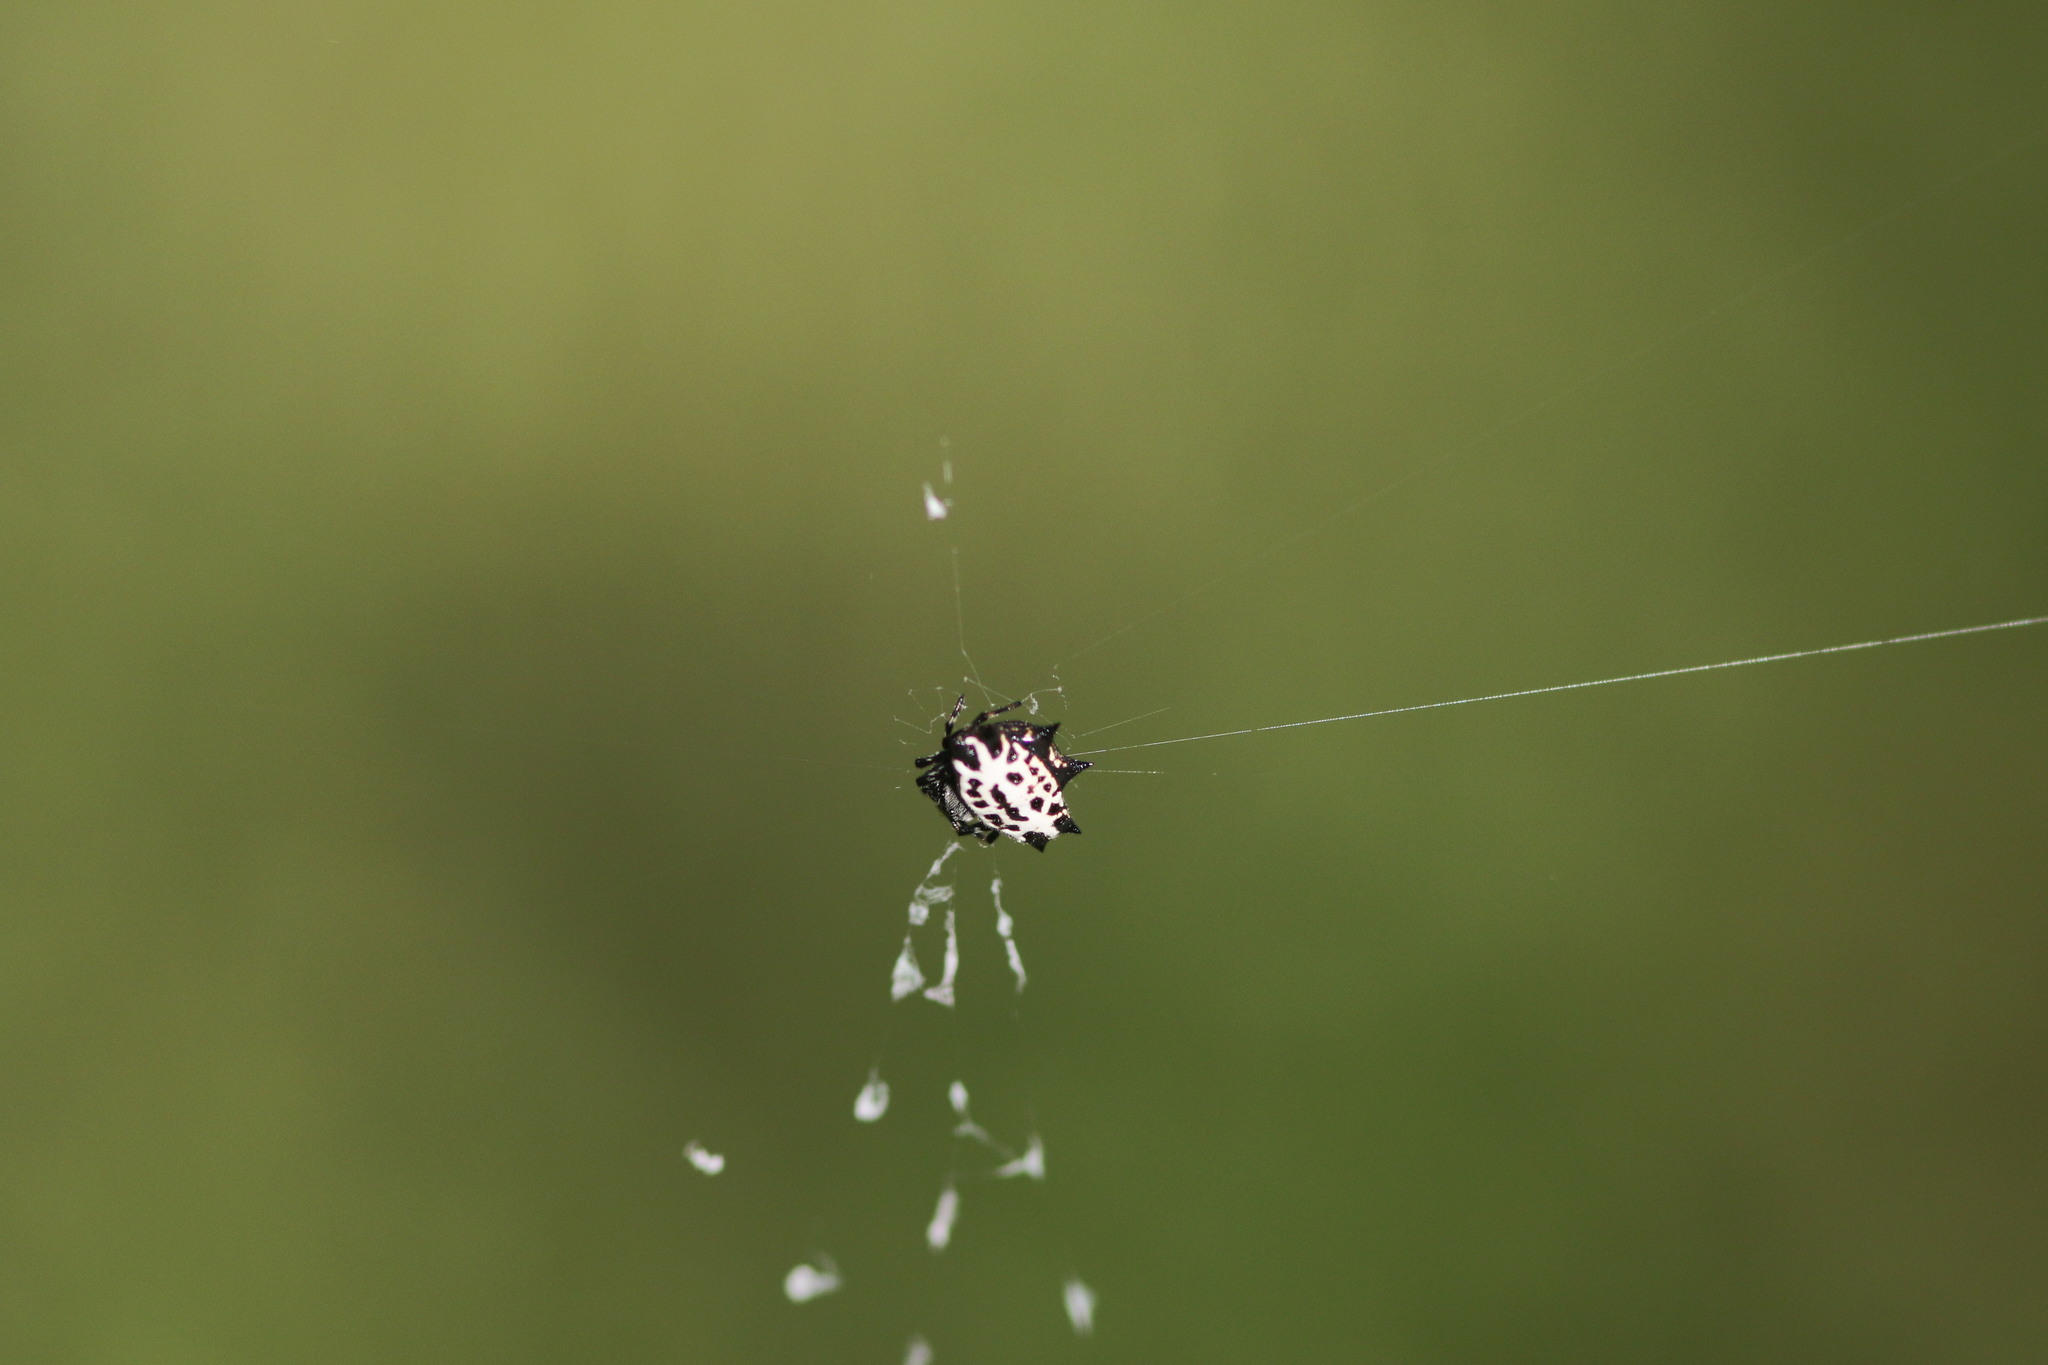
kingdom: Animalia
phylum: Arthropoda
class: Arachnida
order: Araneae
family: Araneidae
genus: Gasteracantha
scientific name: Gasteracantha cancriformis
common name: Orb weavers
